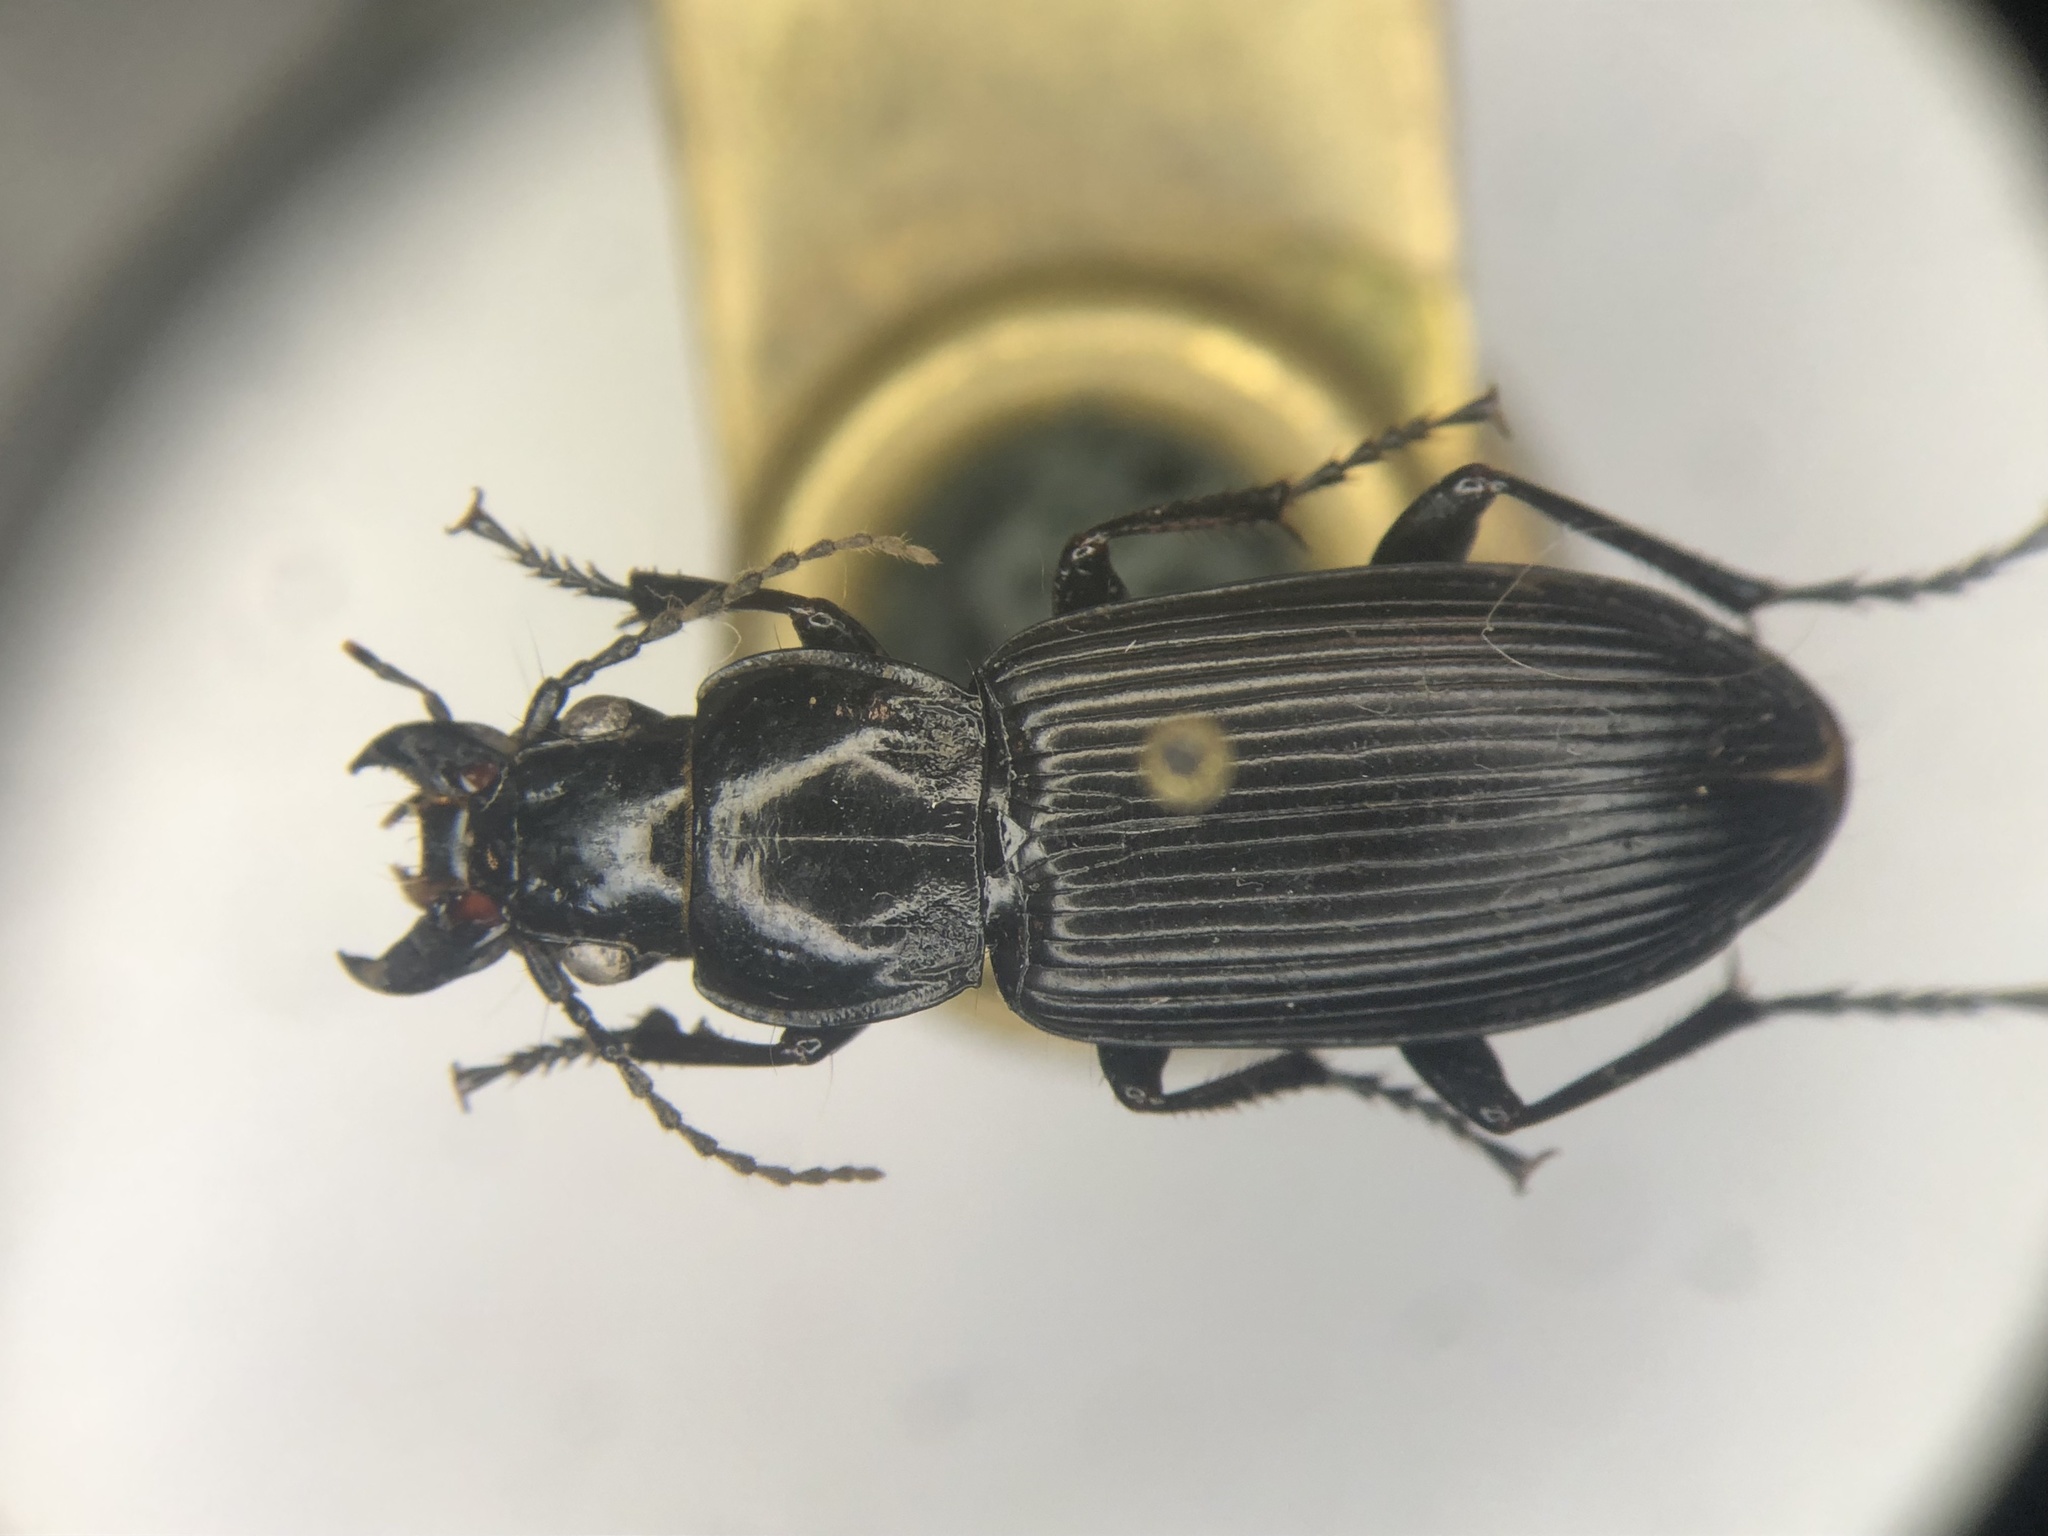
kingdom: Animalia
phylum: Arthropoda
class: Insecta
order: Coleoptera
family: Carabidae
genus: Pterostichus
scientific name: Pterostichus melanarius
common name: European dark harp ground beetle
